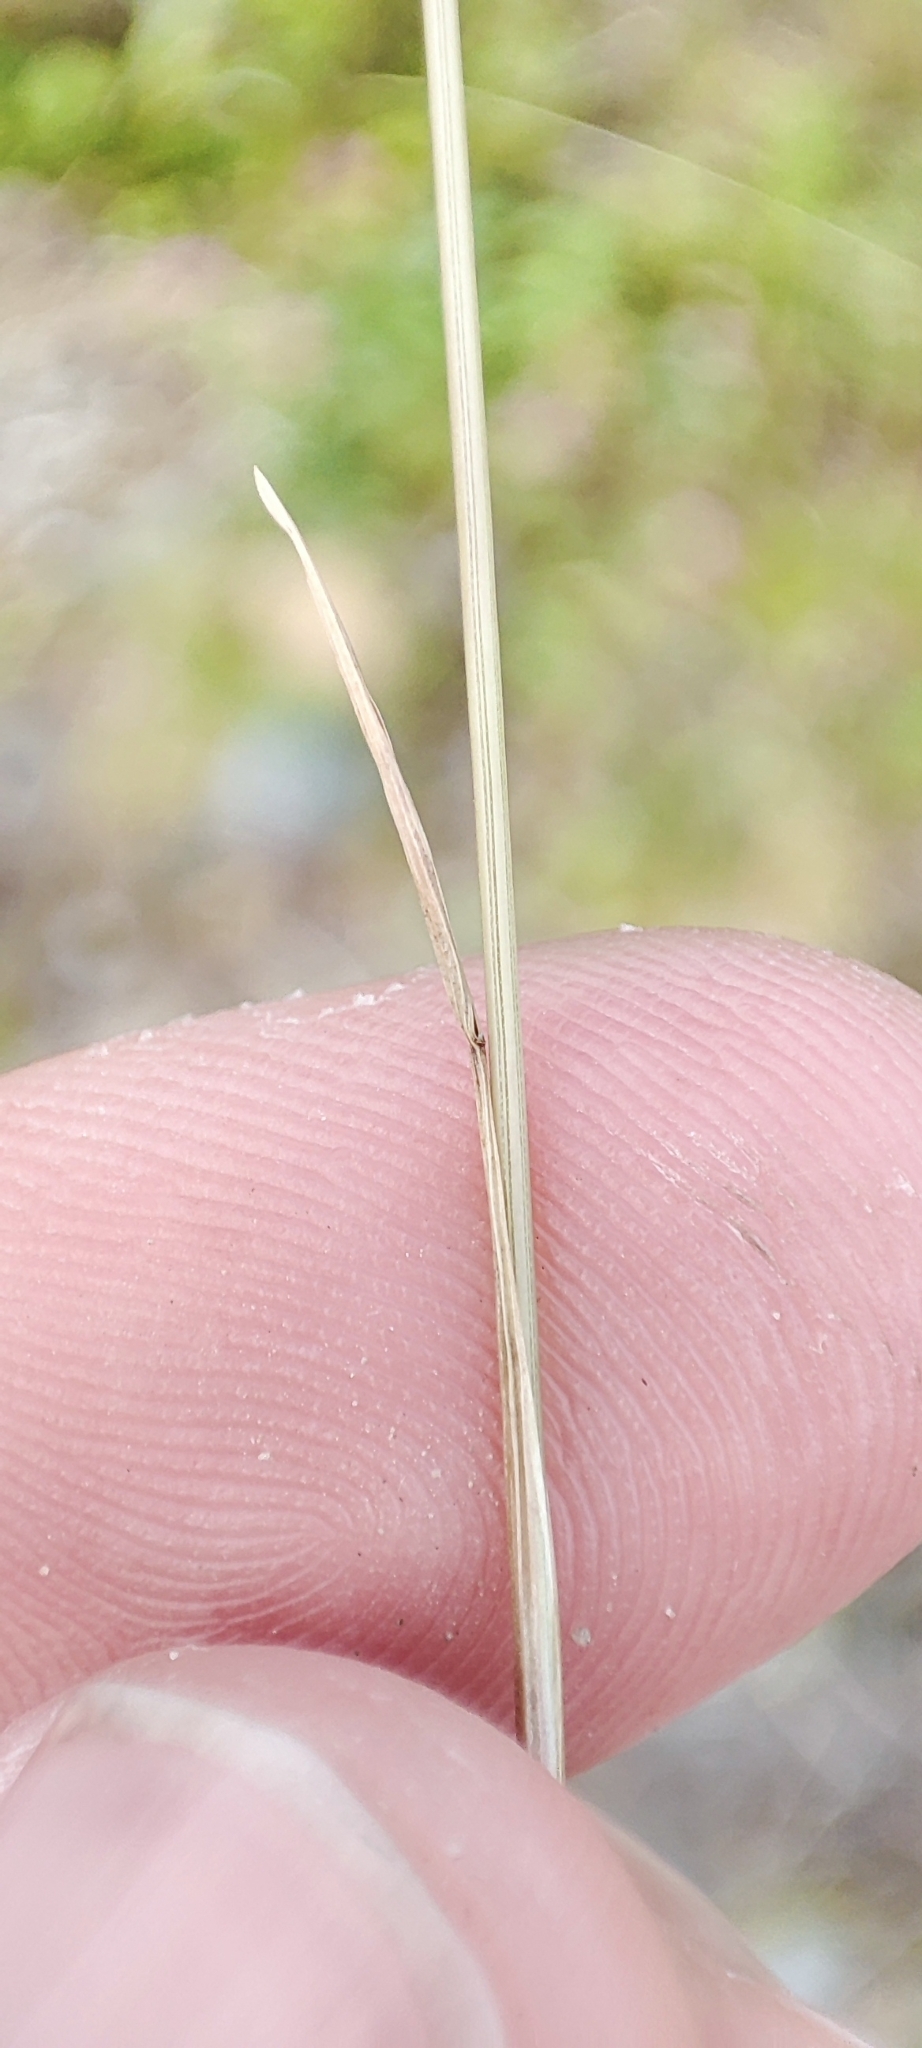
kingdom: Plantae
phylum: Tracheophyta
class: Liliopsida
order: Poales
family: Poaceae
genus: Festuca
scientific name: Festuca rubra
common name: Red fescue
